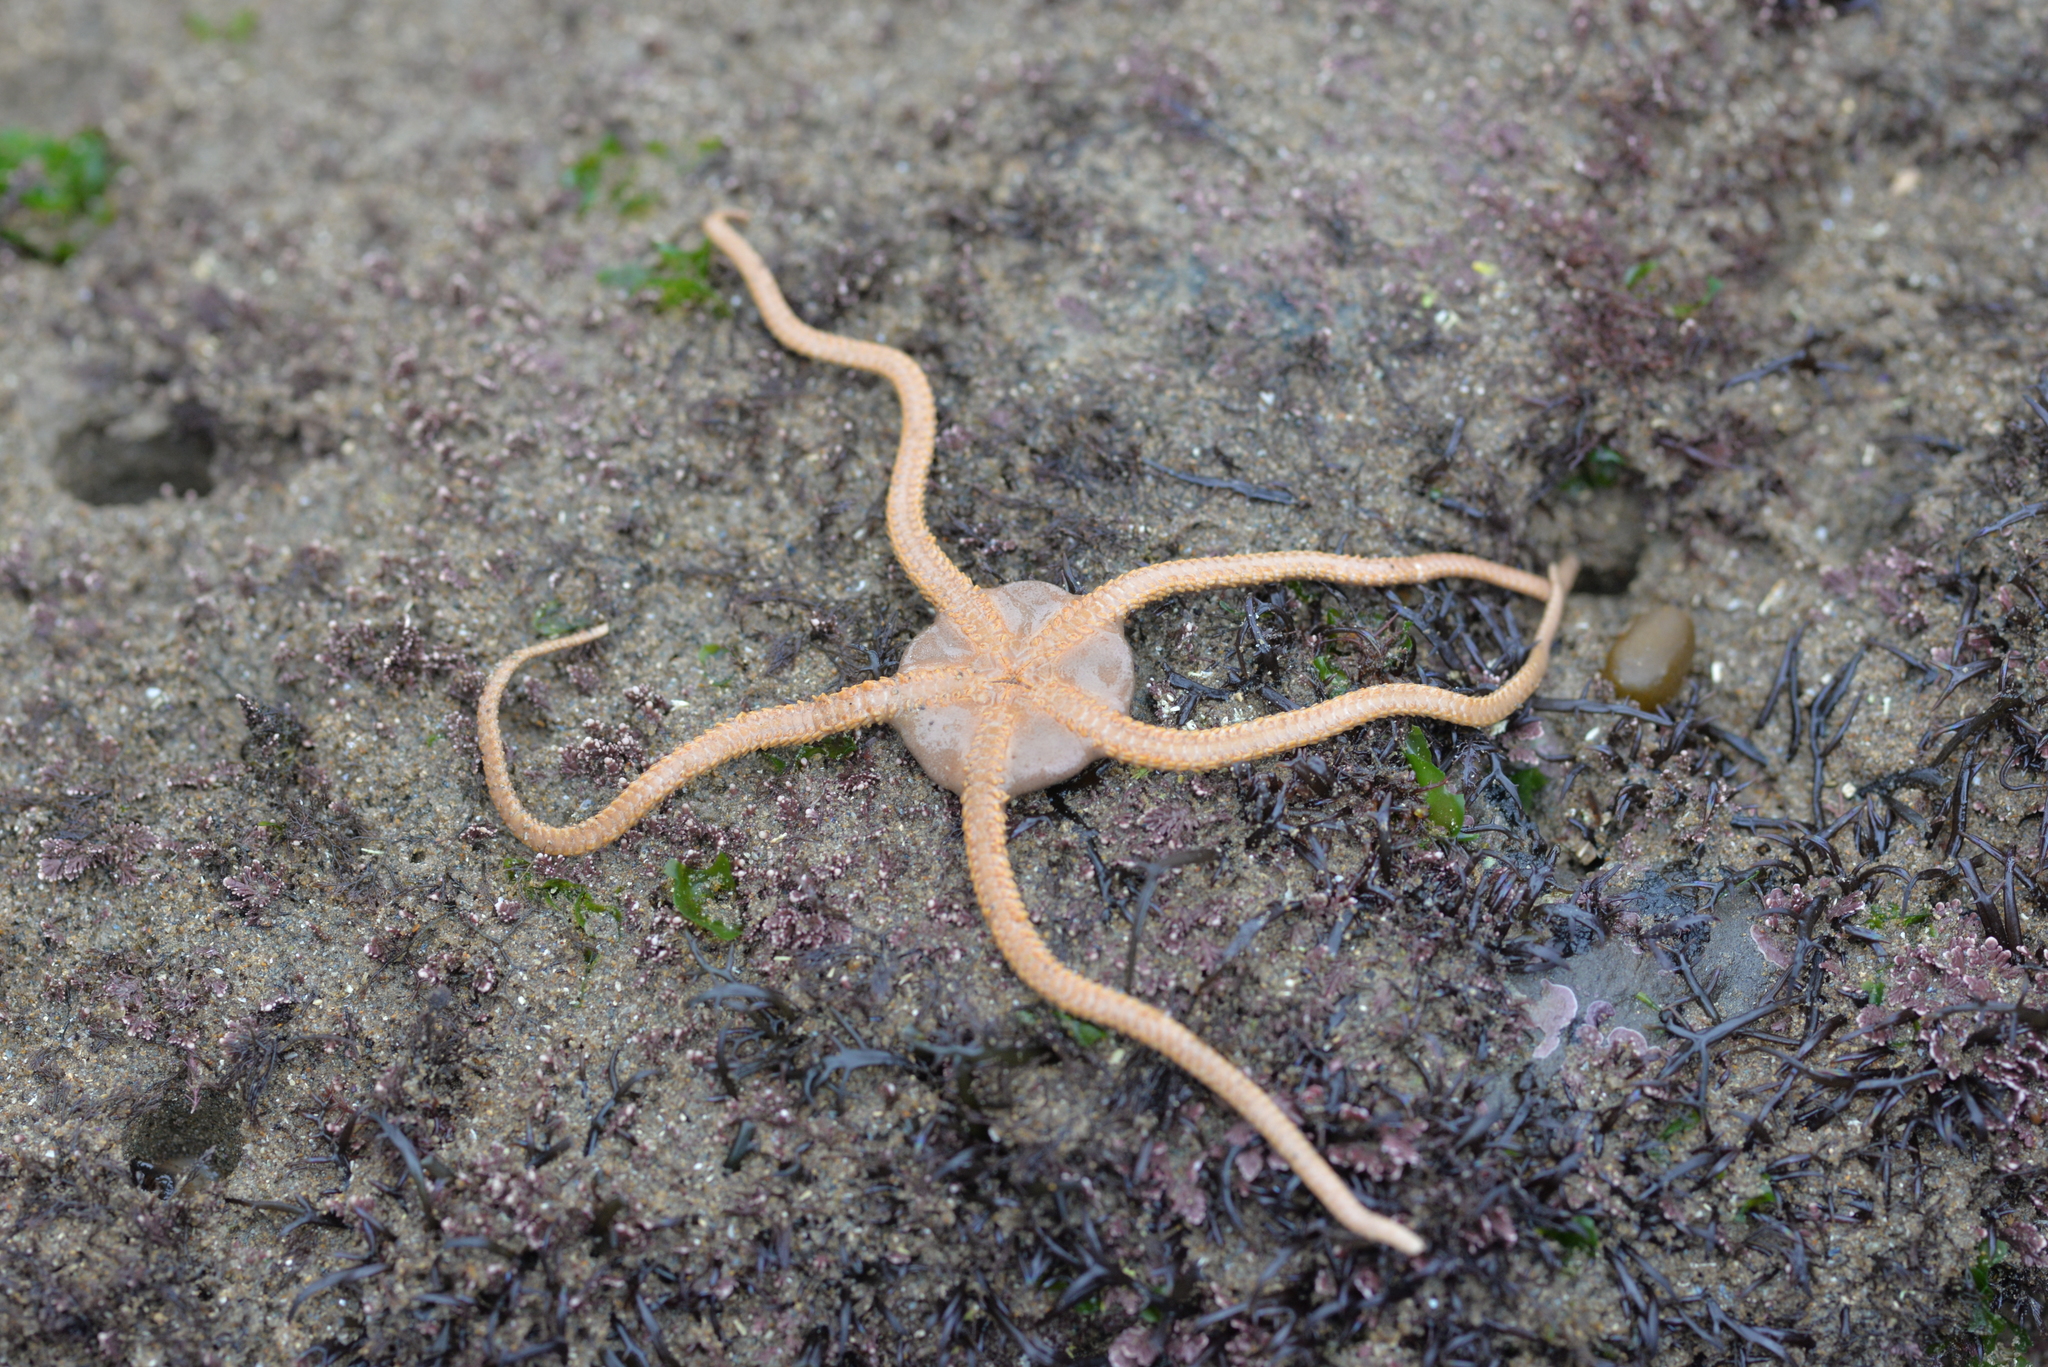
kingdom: Animalia
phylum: Echinodermata
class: Ophiuroidea
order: Amphilepidida
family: Hemieuryalidae
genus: Ophioplocus
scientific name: Ophioplocus esmarki
